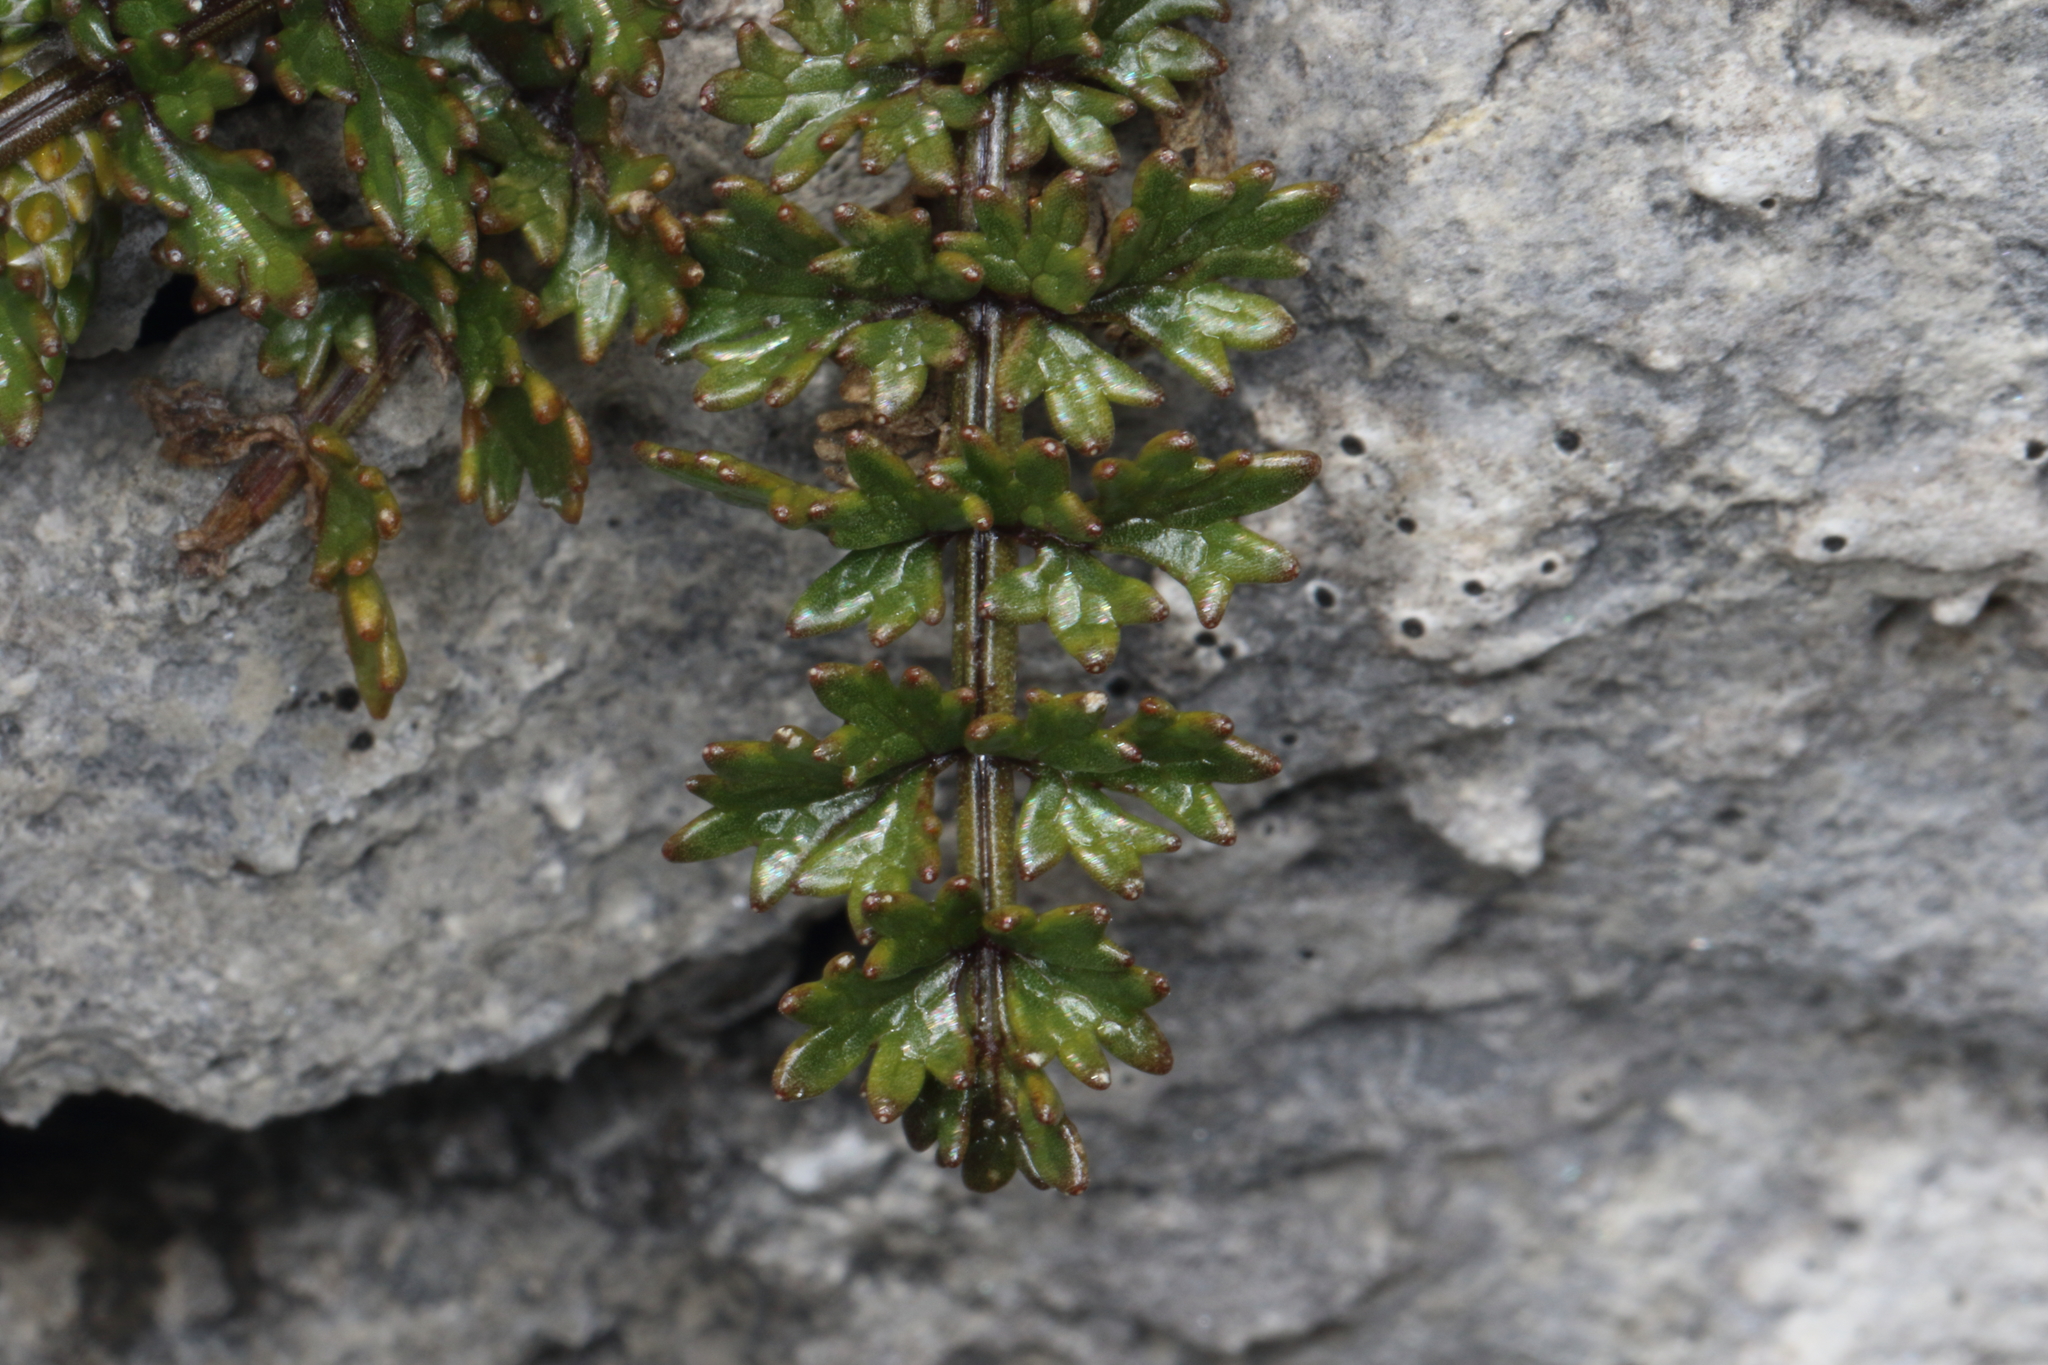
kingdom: Plantae
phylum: Tracheophyta
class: Magnoliopsida
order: Apiales
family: Apiaceae
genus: Gingidia
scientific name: Gingidia decipiens
